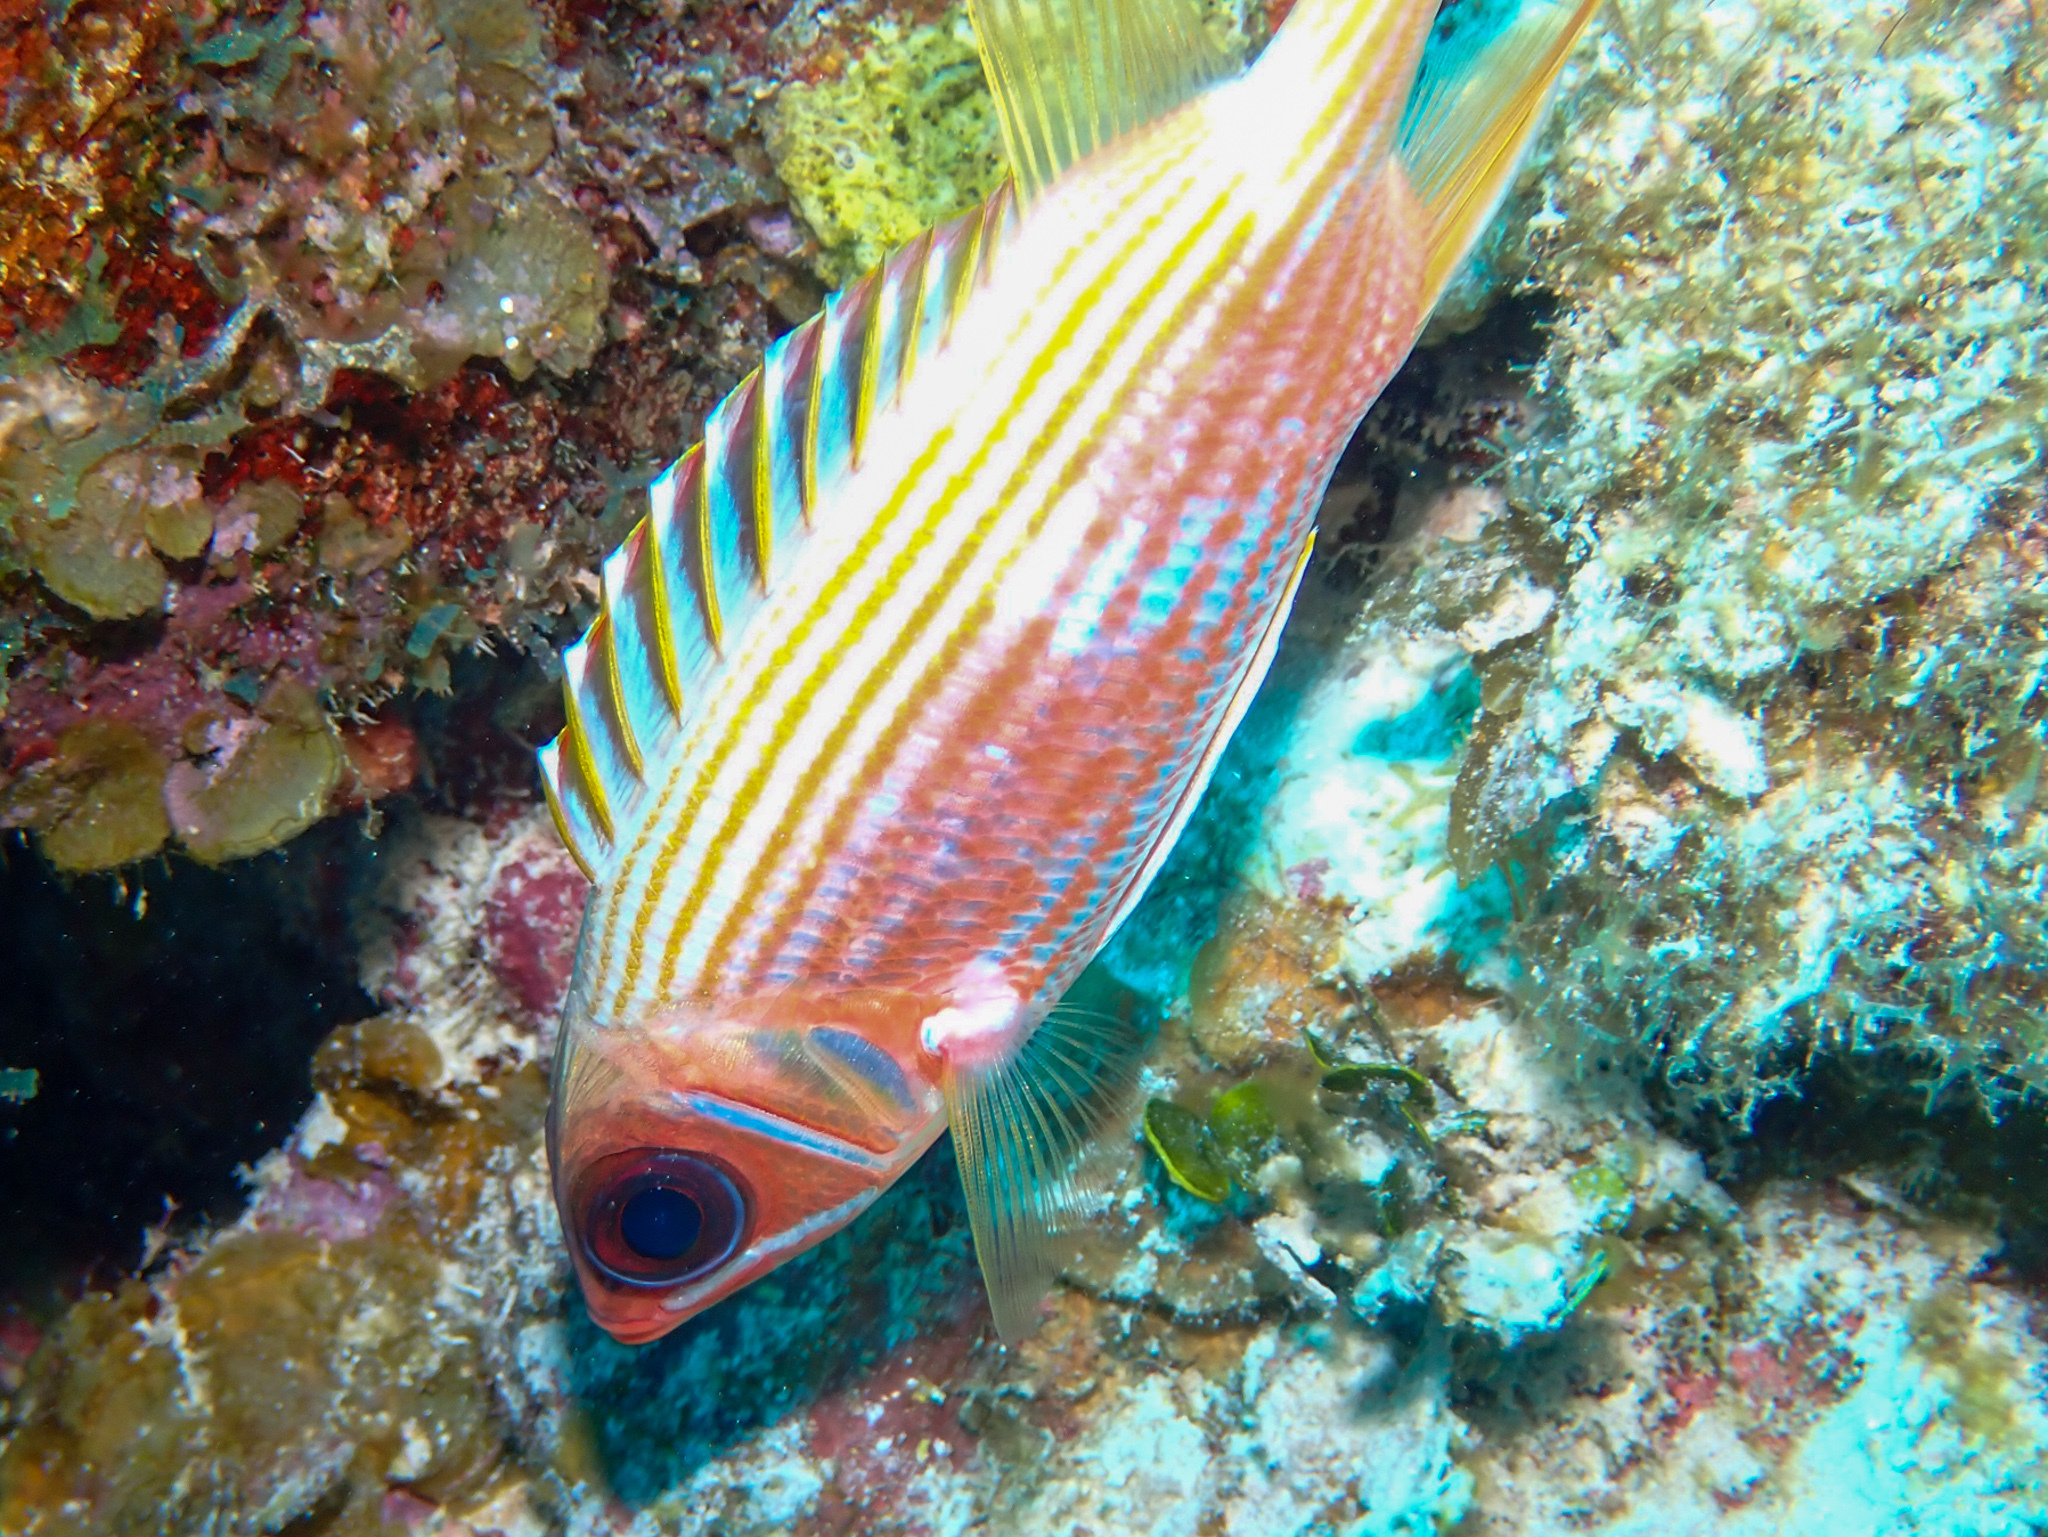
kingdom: Animalia
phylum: Chordata
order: Beryciformes
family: Holocentridae
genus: Holocentrus
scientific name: Holocentrus rufus
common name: Longspine squirrelfish
